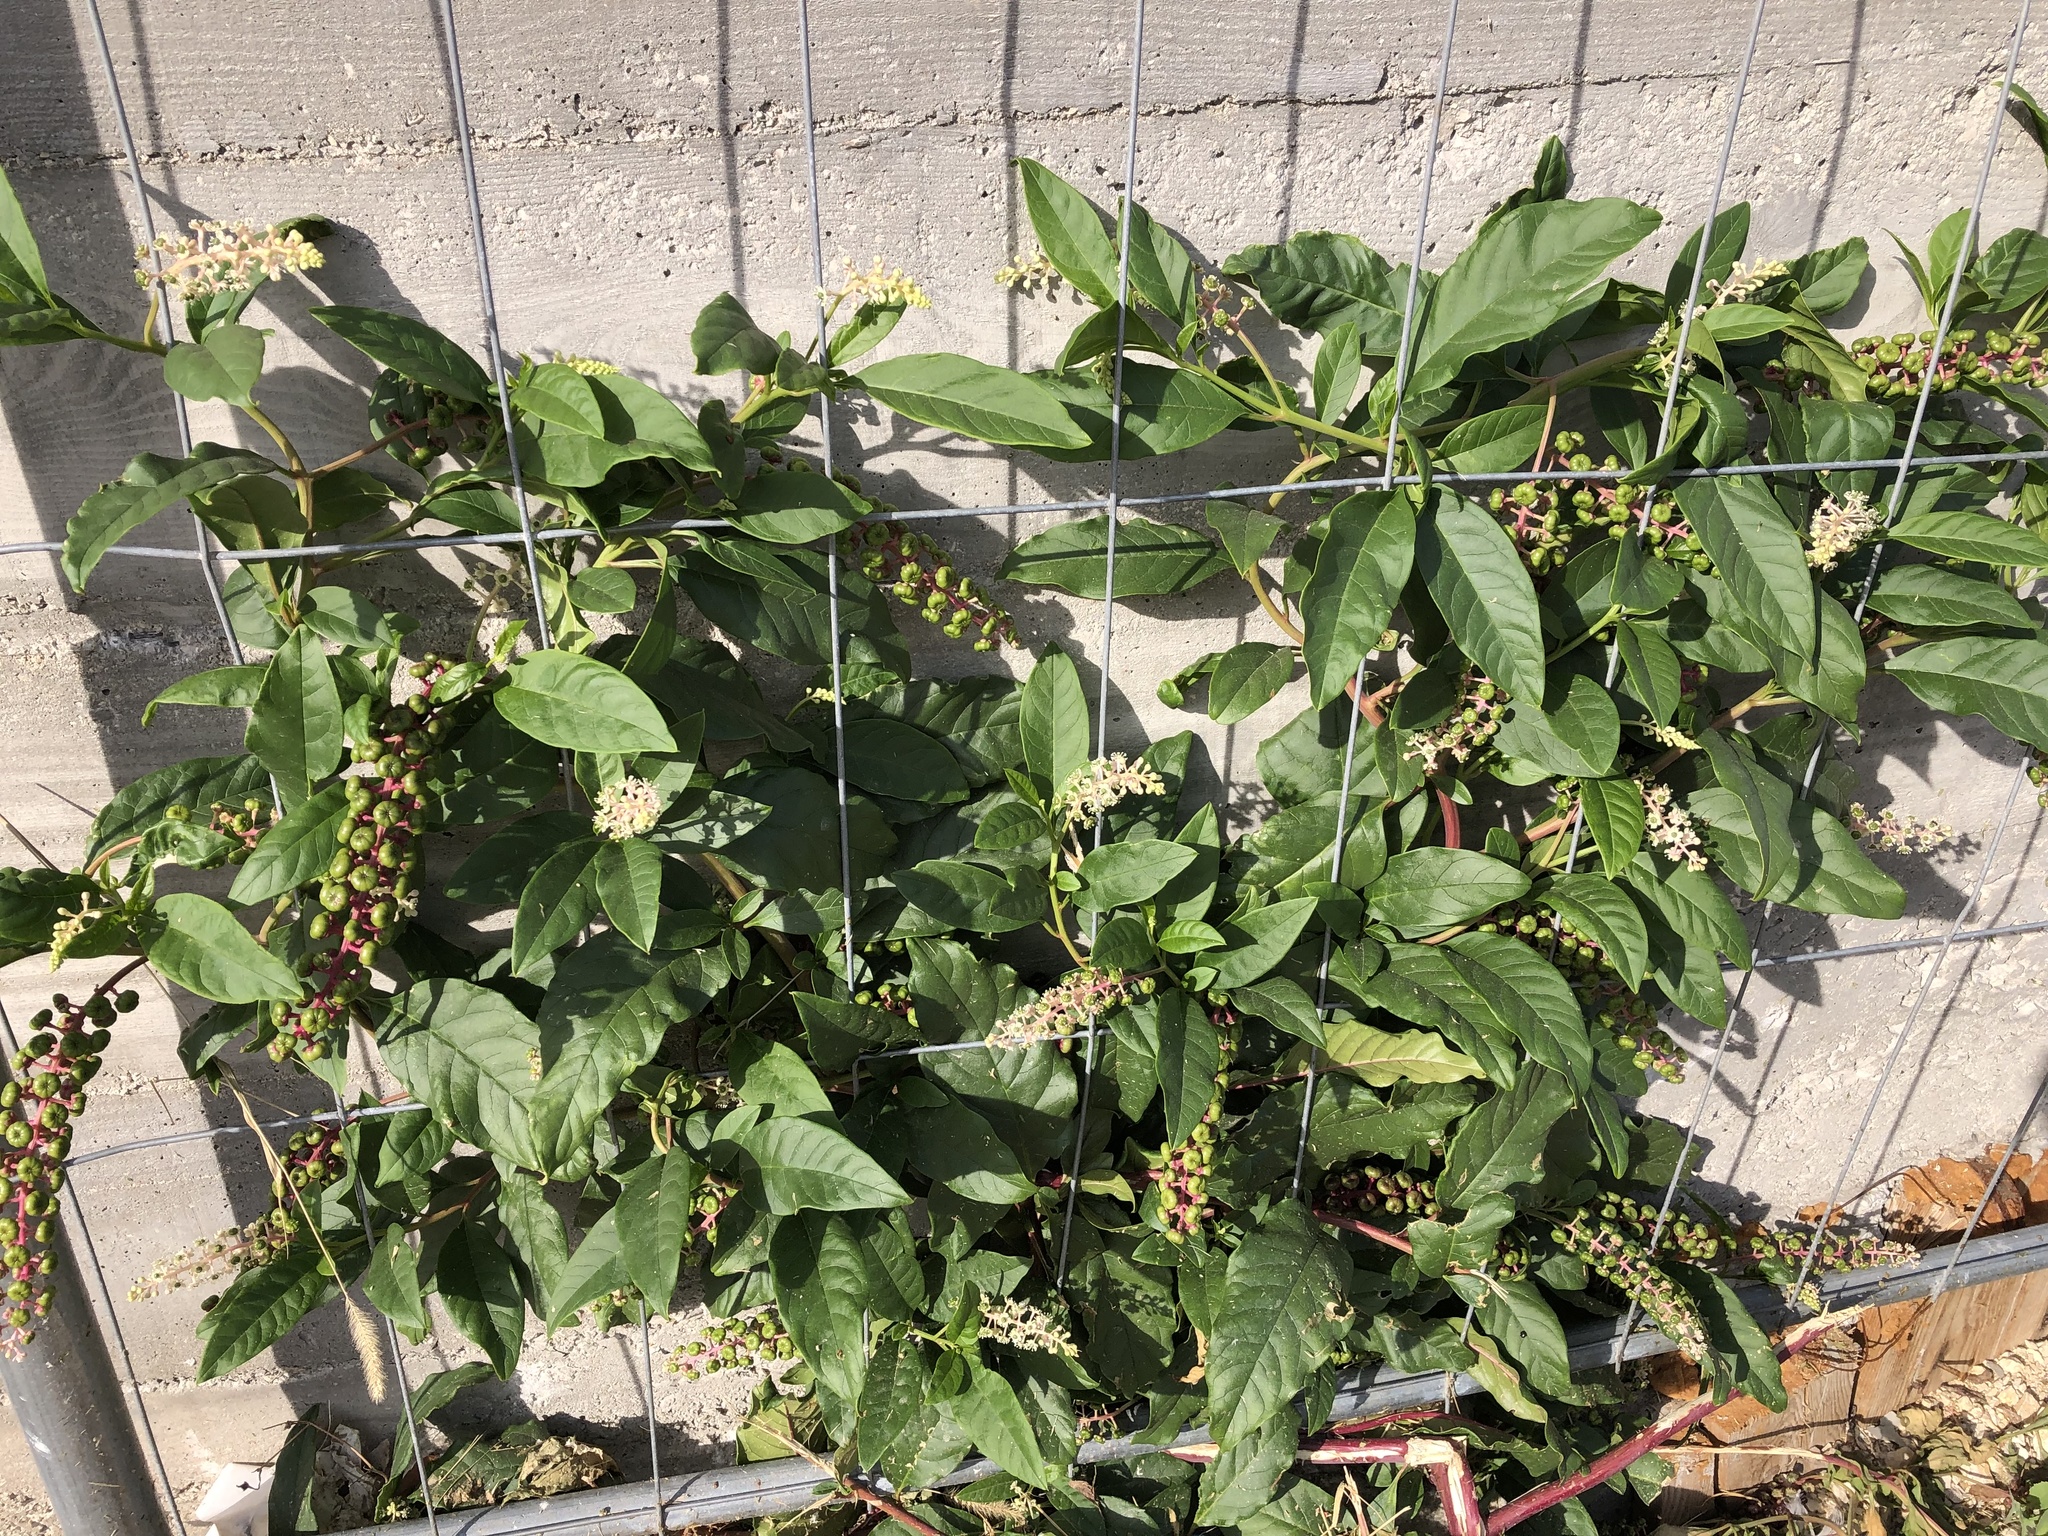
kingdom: Plantae
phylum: Tracheophyta
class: Magnoliopsida
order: Caryophyllales
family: Phytolaccaceae
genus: Phytolacca
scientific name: Phytolacca americana
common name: American pokeweed
